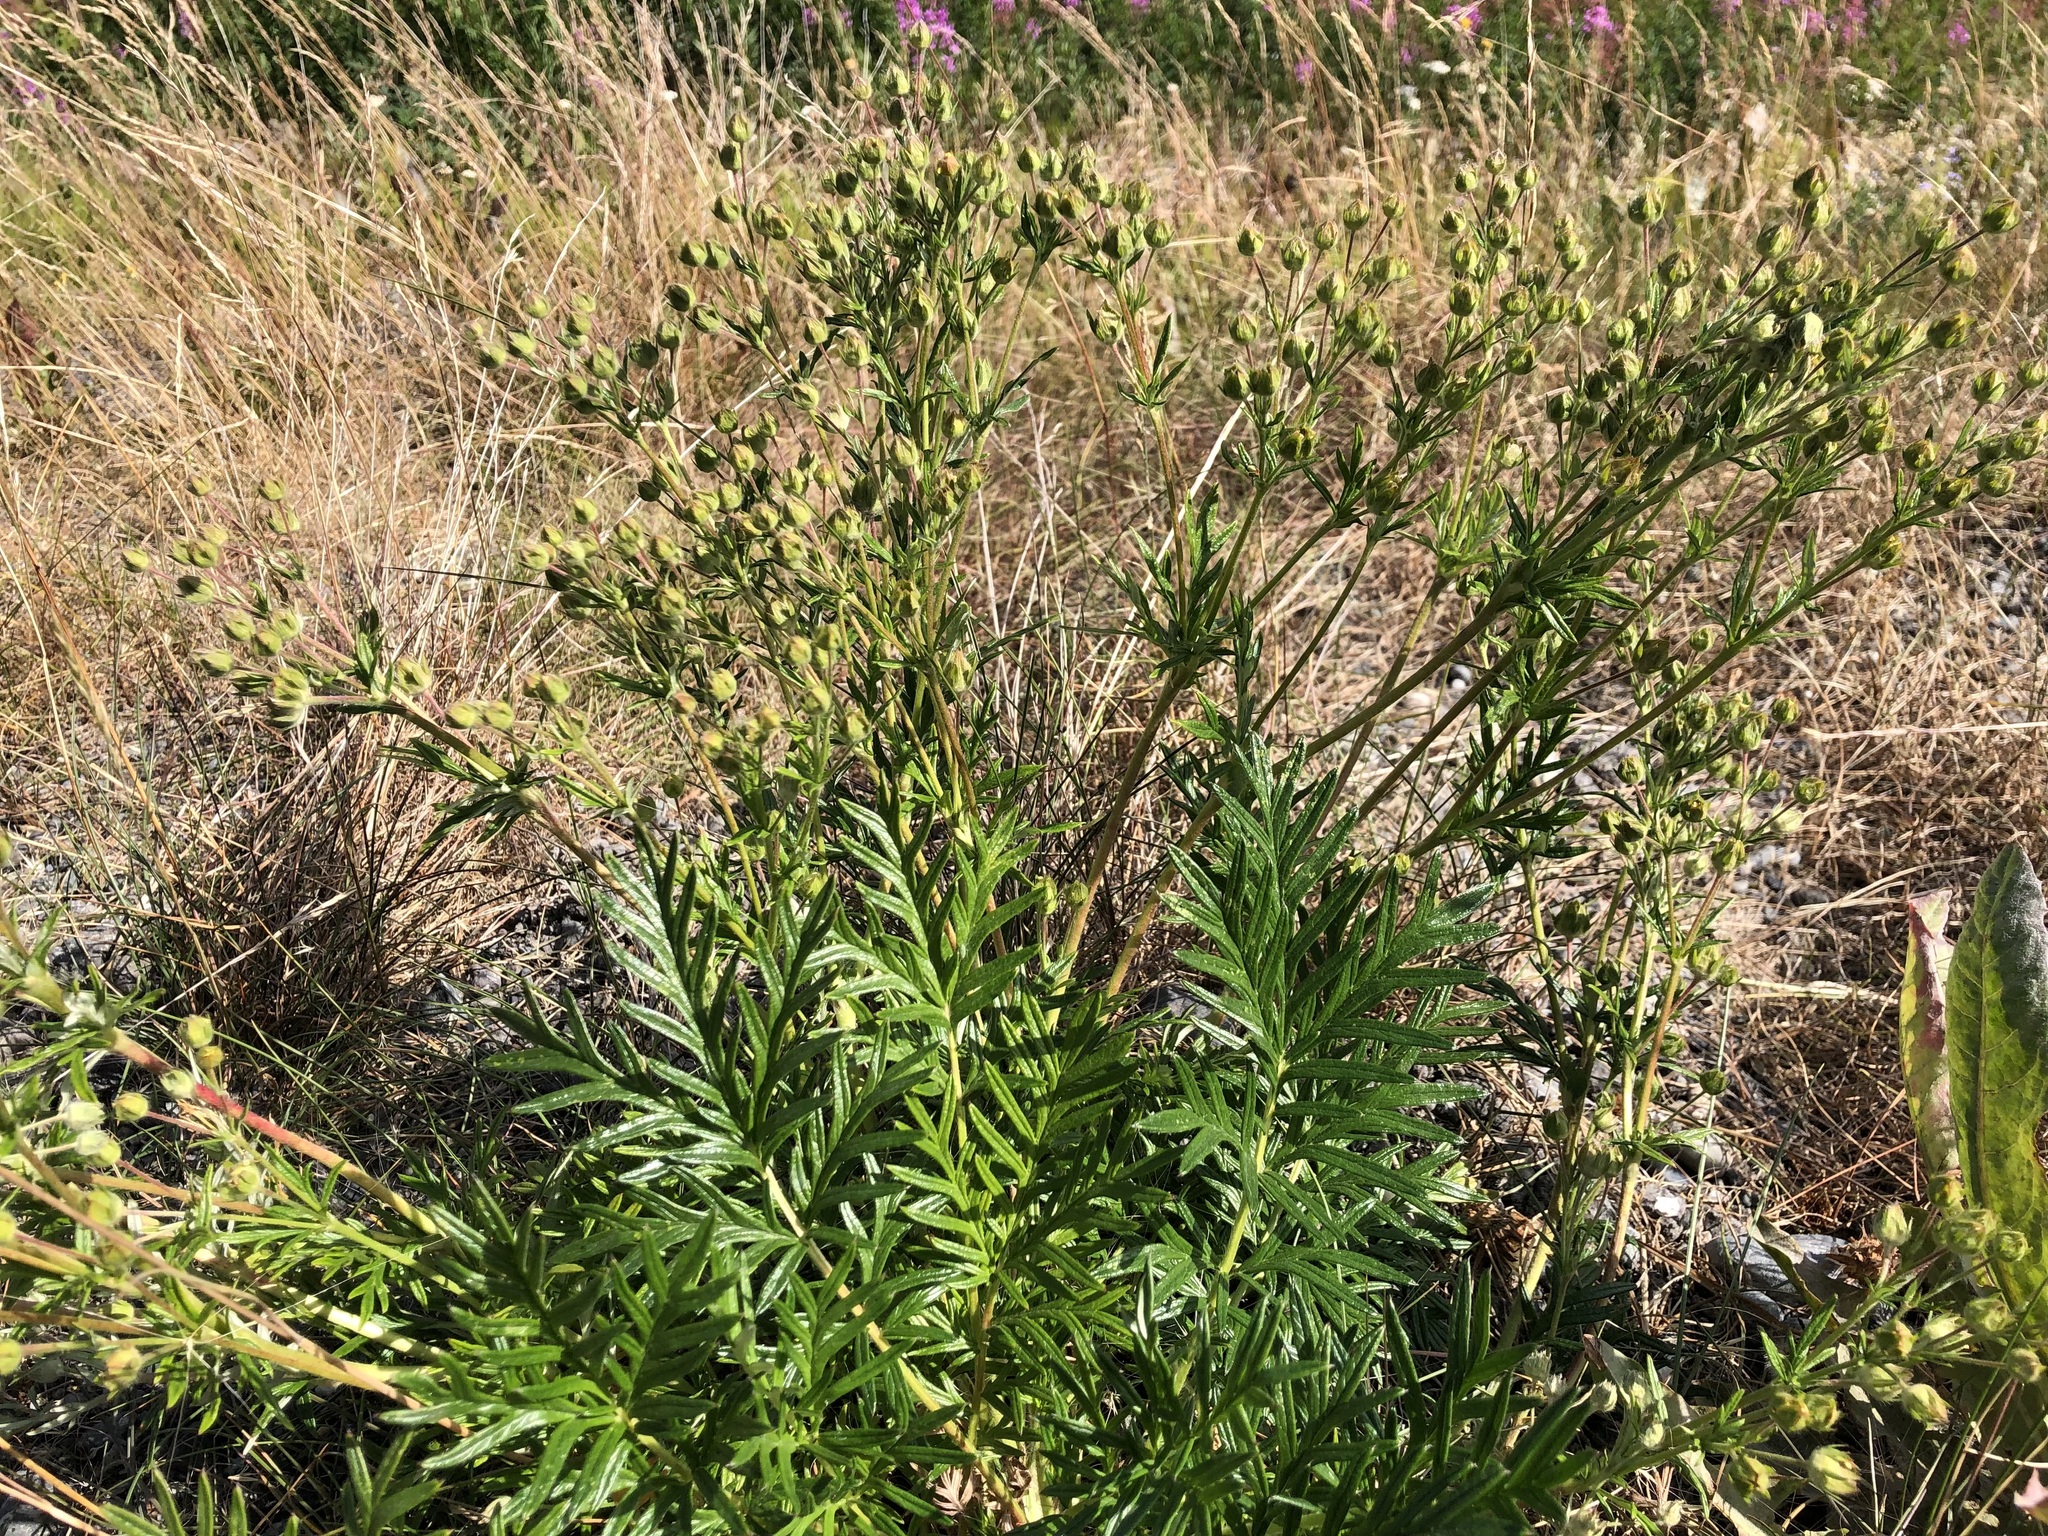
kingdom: Plantae
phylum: Tracheophyta
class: Magnoliopsida
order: Rosales
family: Rosaceae
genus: Potentilla
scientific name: Potentilla bimundorum
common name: Cut-leaved cinquefoil
